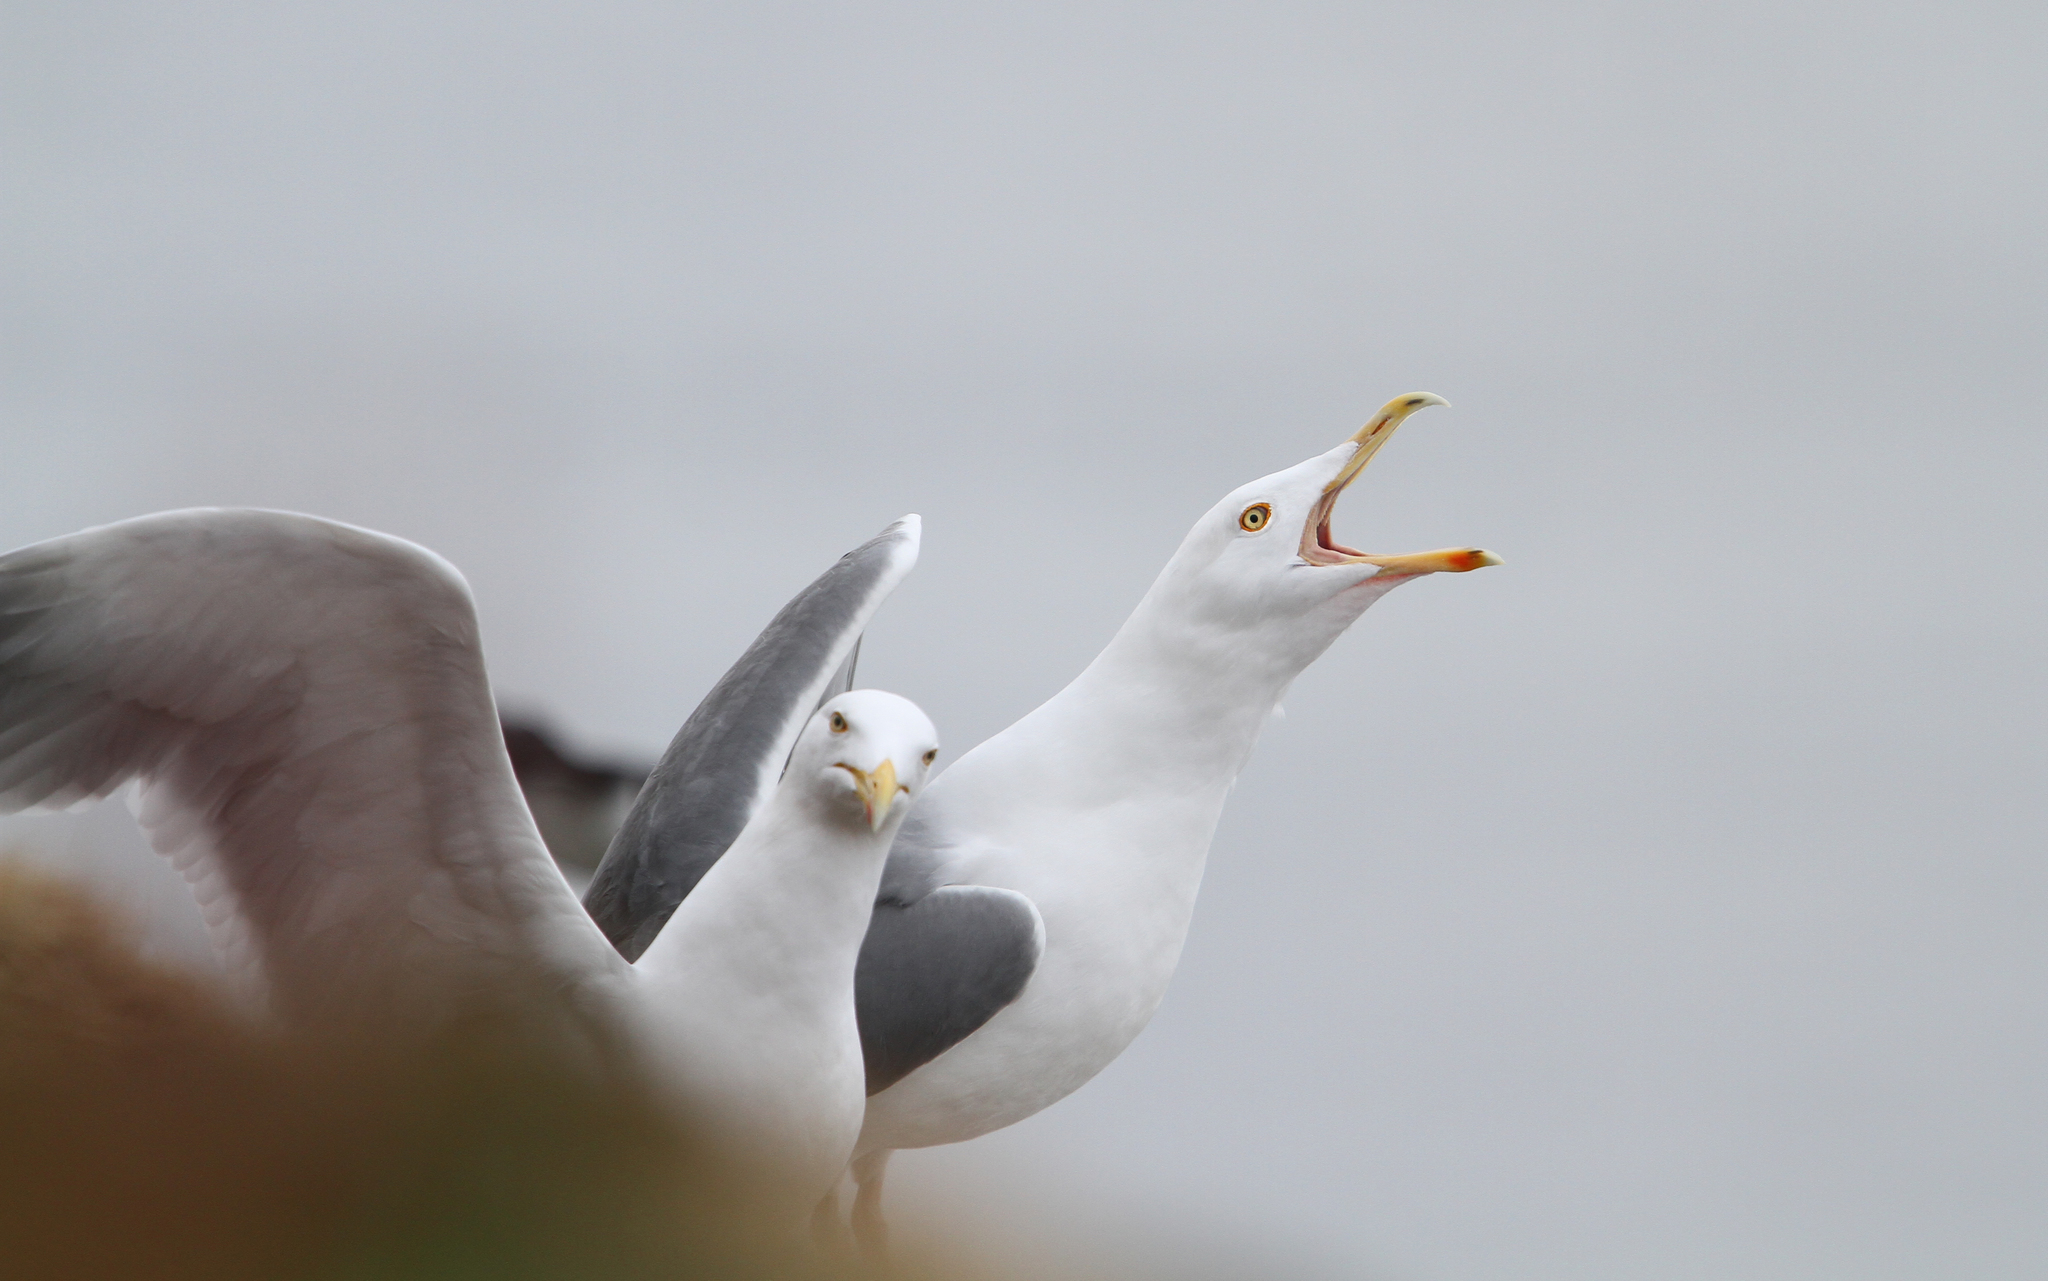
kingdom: Animalia
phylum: Chordata
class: Aves
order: Charadriiformes
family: Laridae
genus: Larus
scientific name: Larus argentatus
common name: Herring gull
